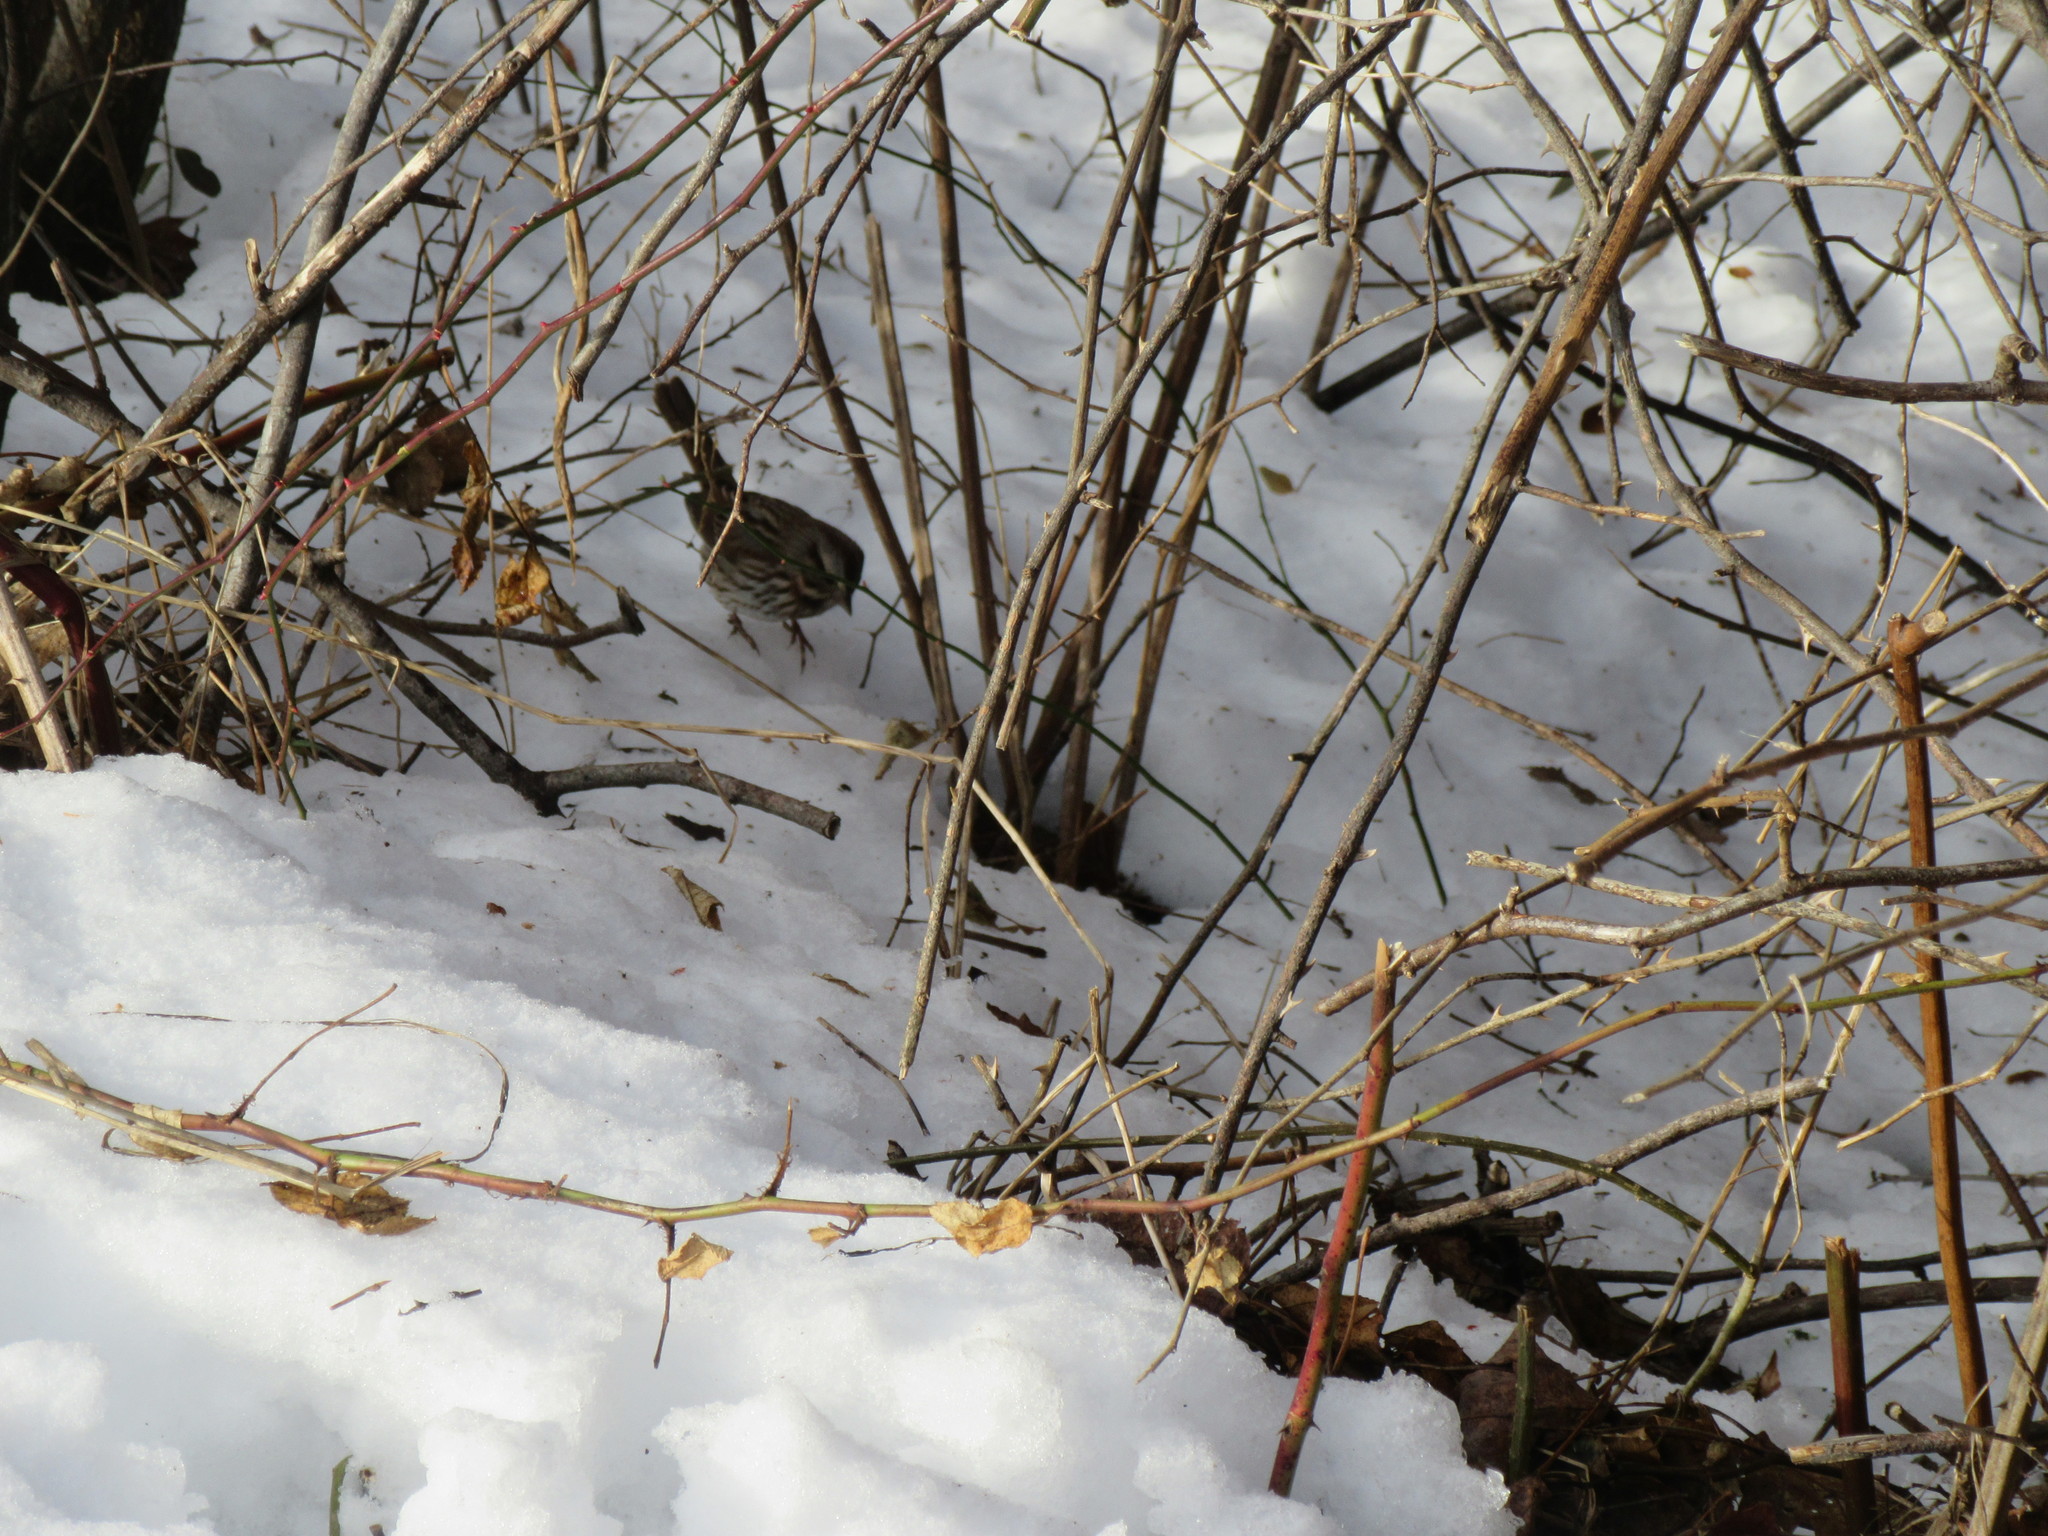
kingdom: Animalia
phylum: Chordata
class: Aves
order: Passeriformes
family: Passerellidae
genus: Melospiza
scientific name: Melospiza melodia
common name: Song sparrow
